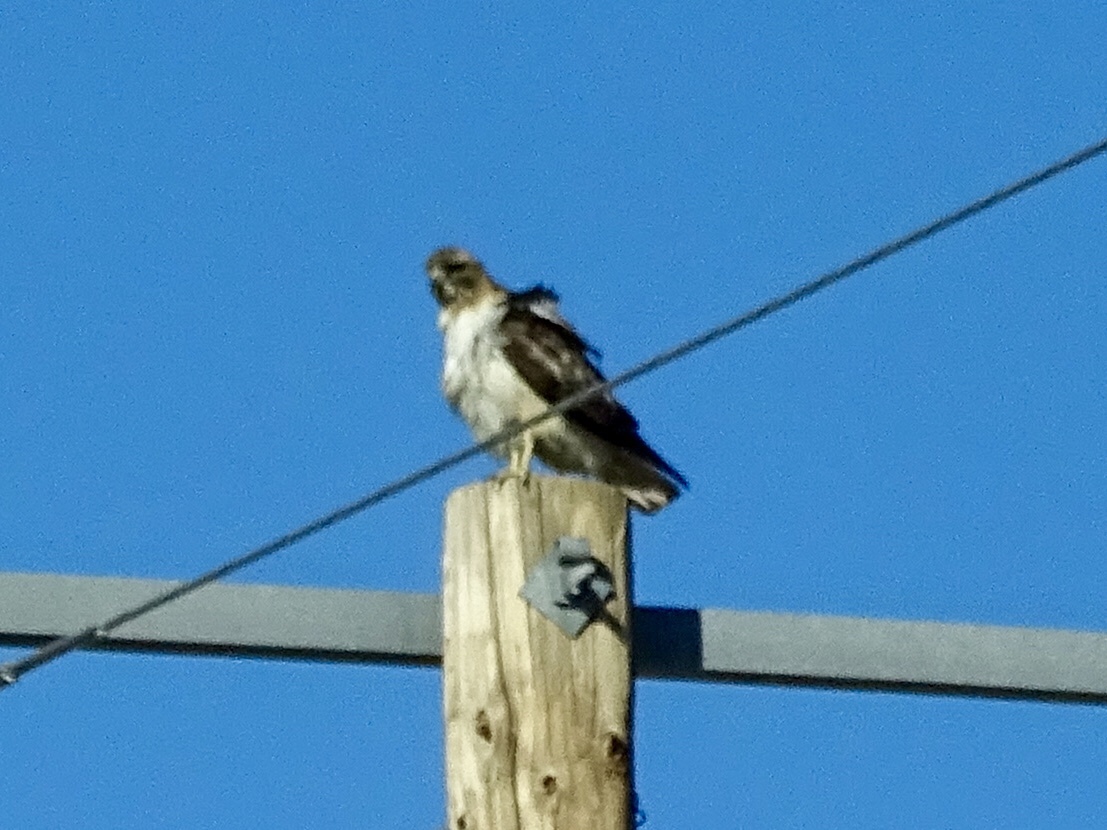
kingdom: Animalia
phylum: Chordata
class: Aves
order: Accipitriformes
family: Accipitridae
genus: Buteo
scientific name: Buteo jamaicensis
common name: Red-tailed hawk
